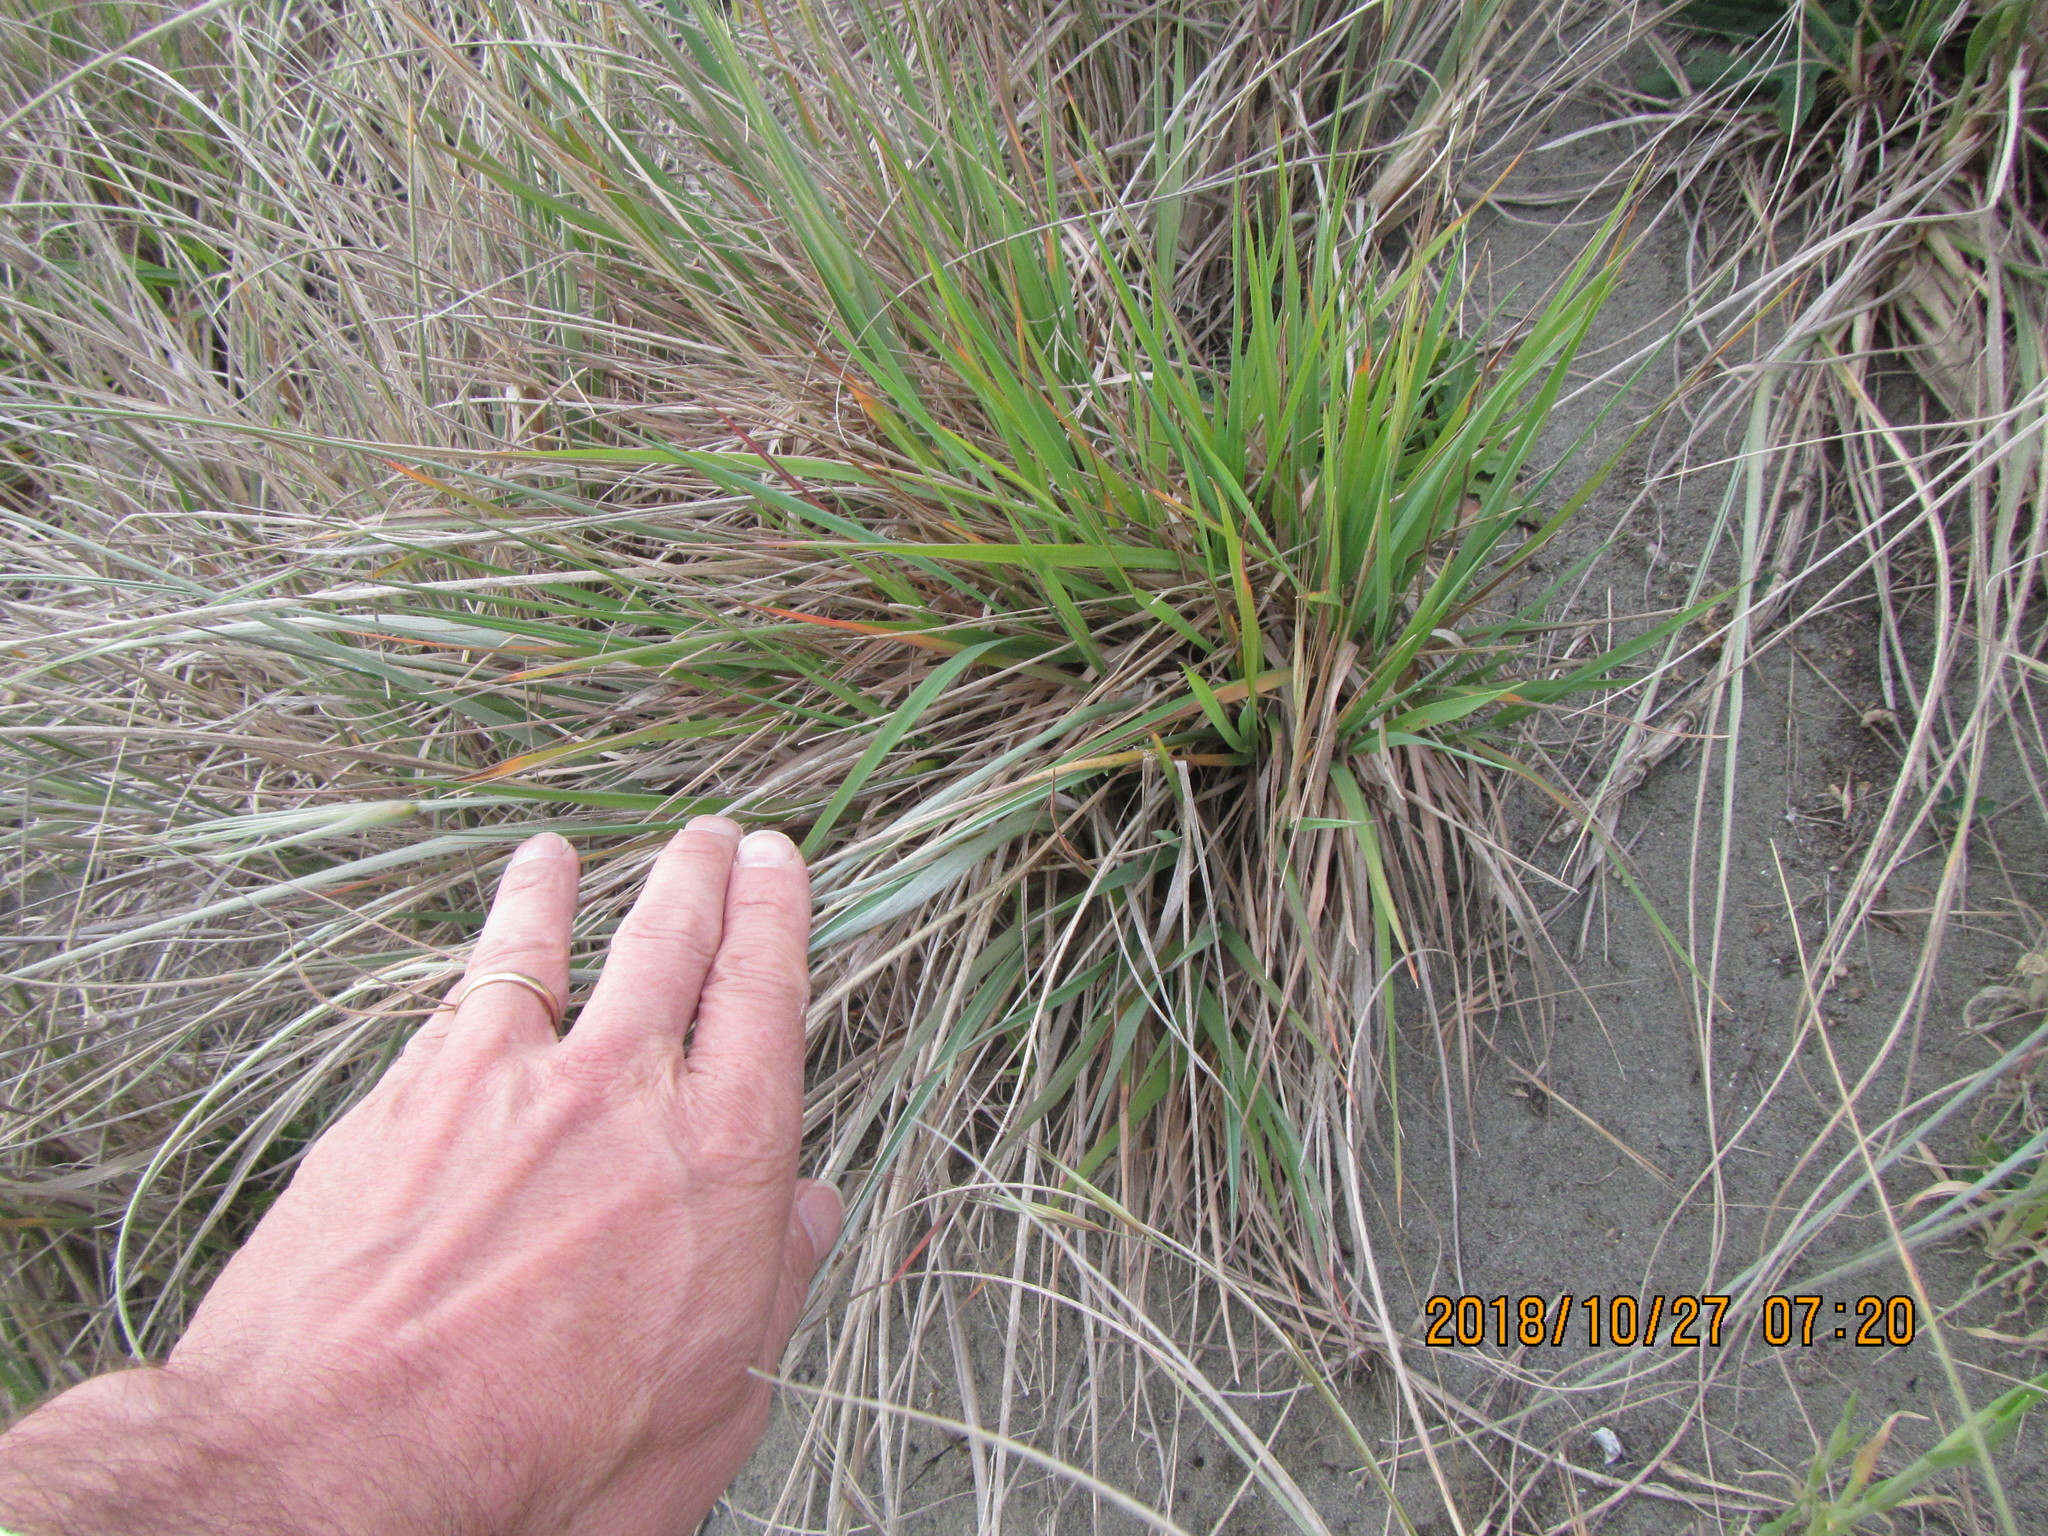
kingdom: Plantae
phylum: Tracheophyta
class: Liliopsida
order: Poales
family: Poaceae
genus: Lachnagrostis
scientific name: Lachnagrostis billardierei
